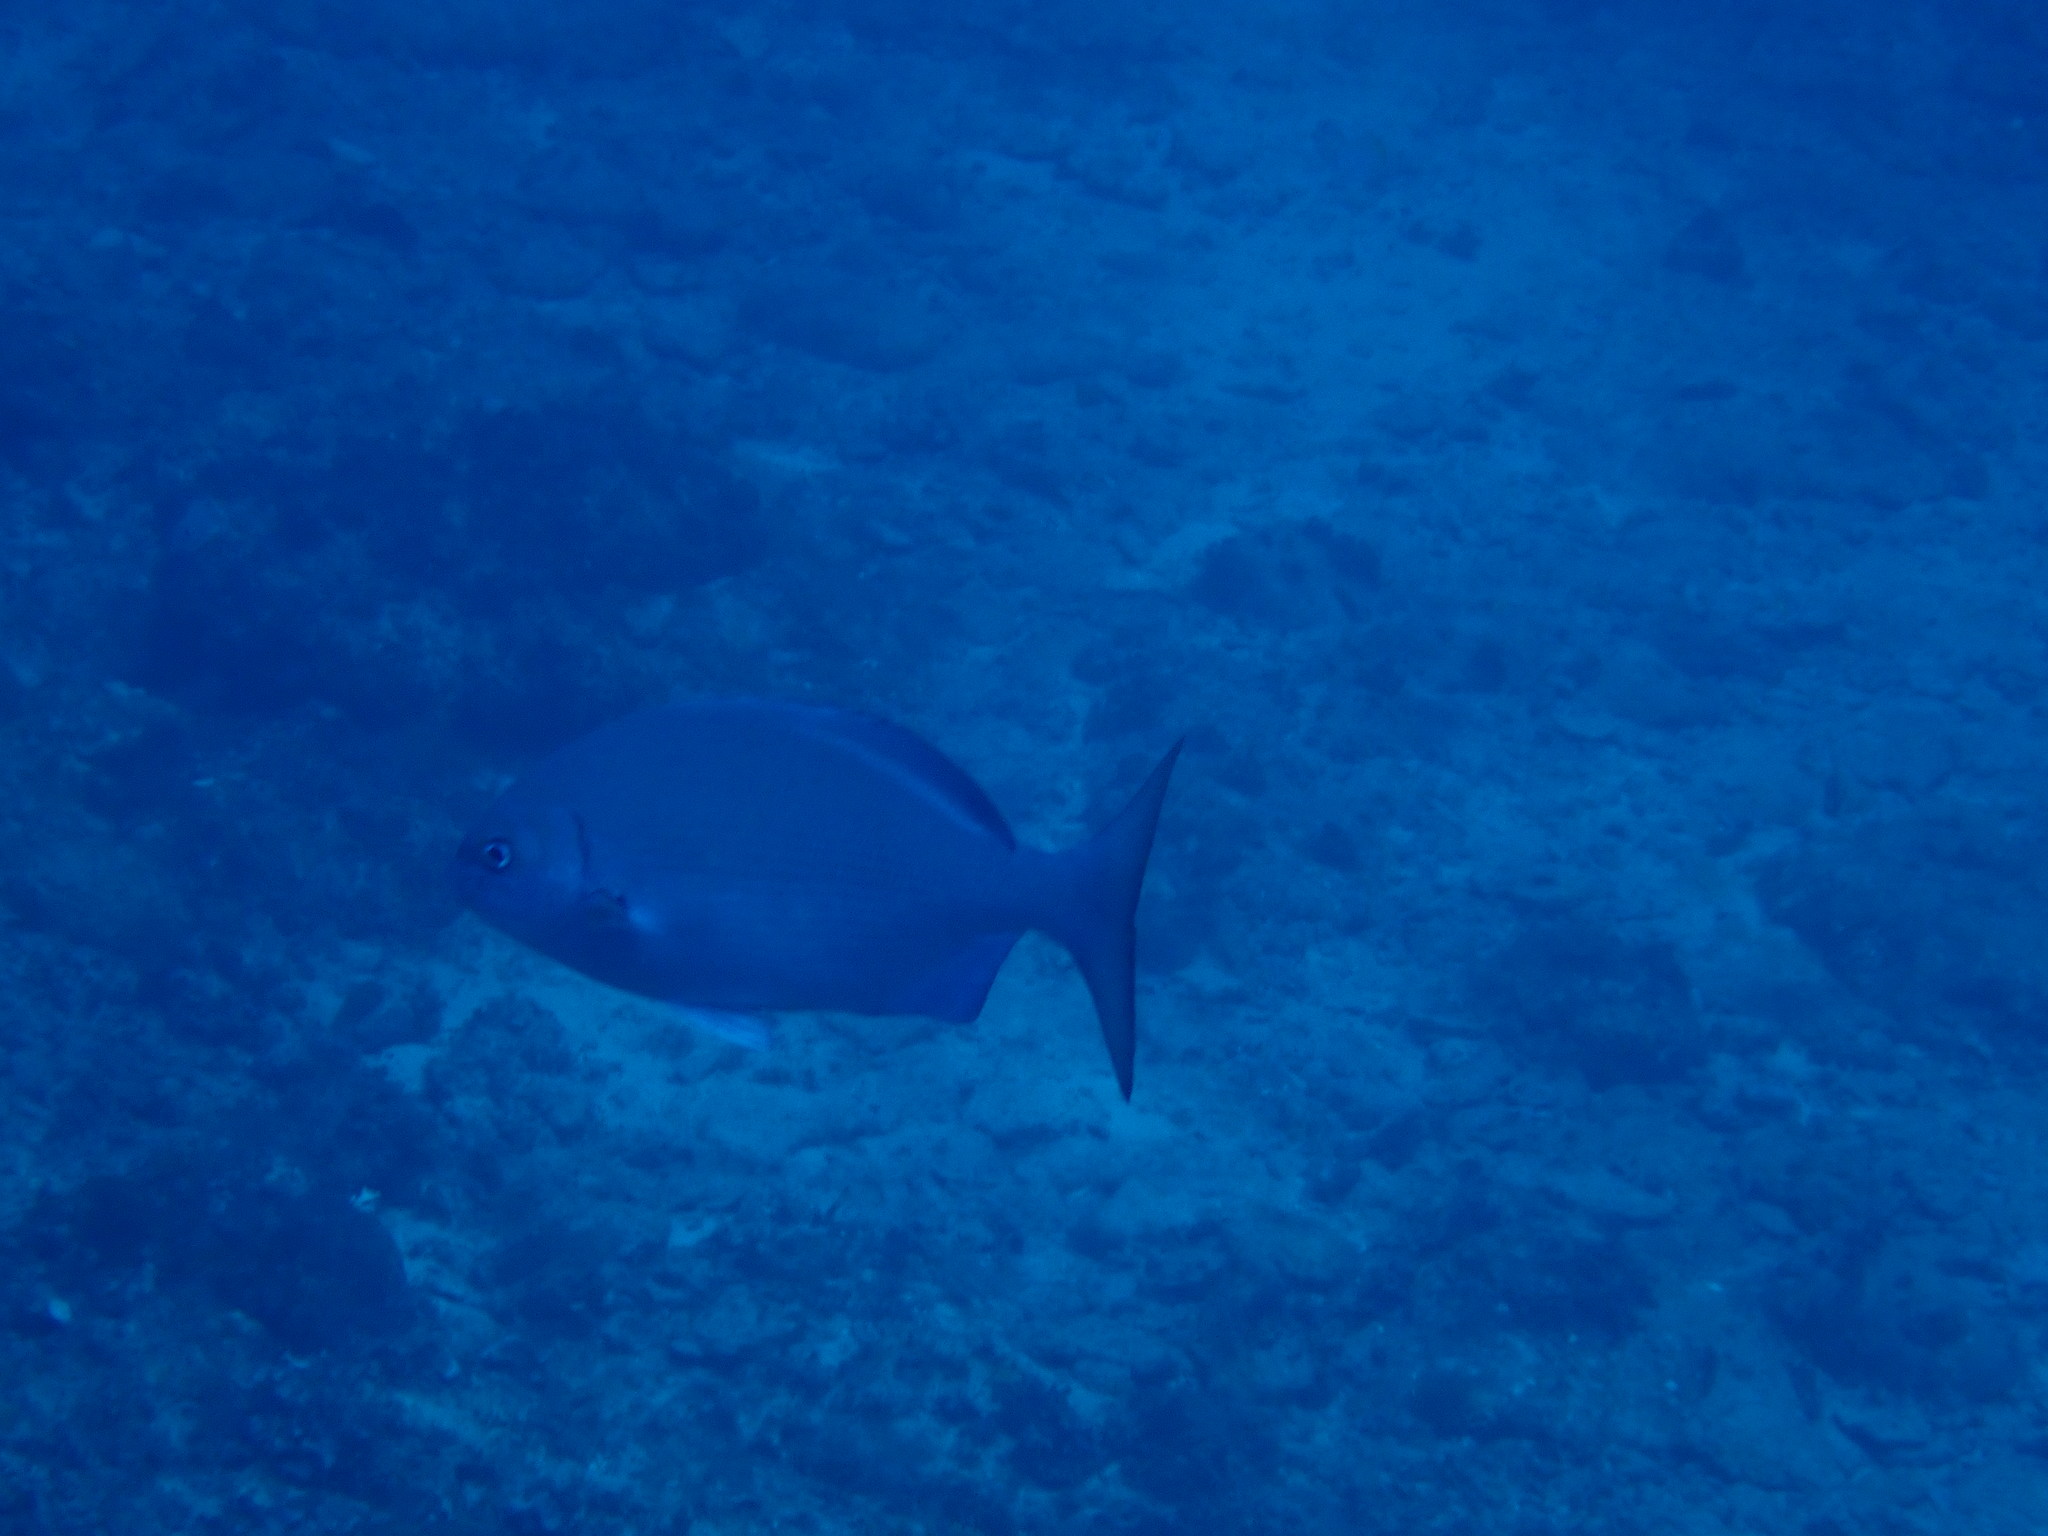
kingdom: Animalia
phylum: Chordata
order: Perciformes
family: Kyphosidae
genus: Kyphosus
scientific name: Kyphosus sectatrix
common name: Bermuda chub
